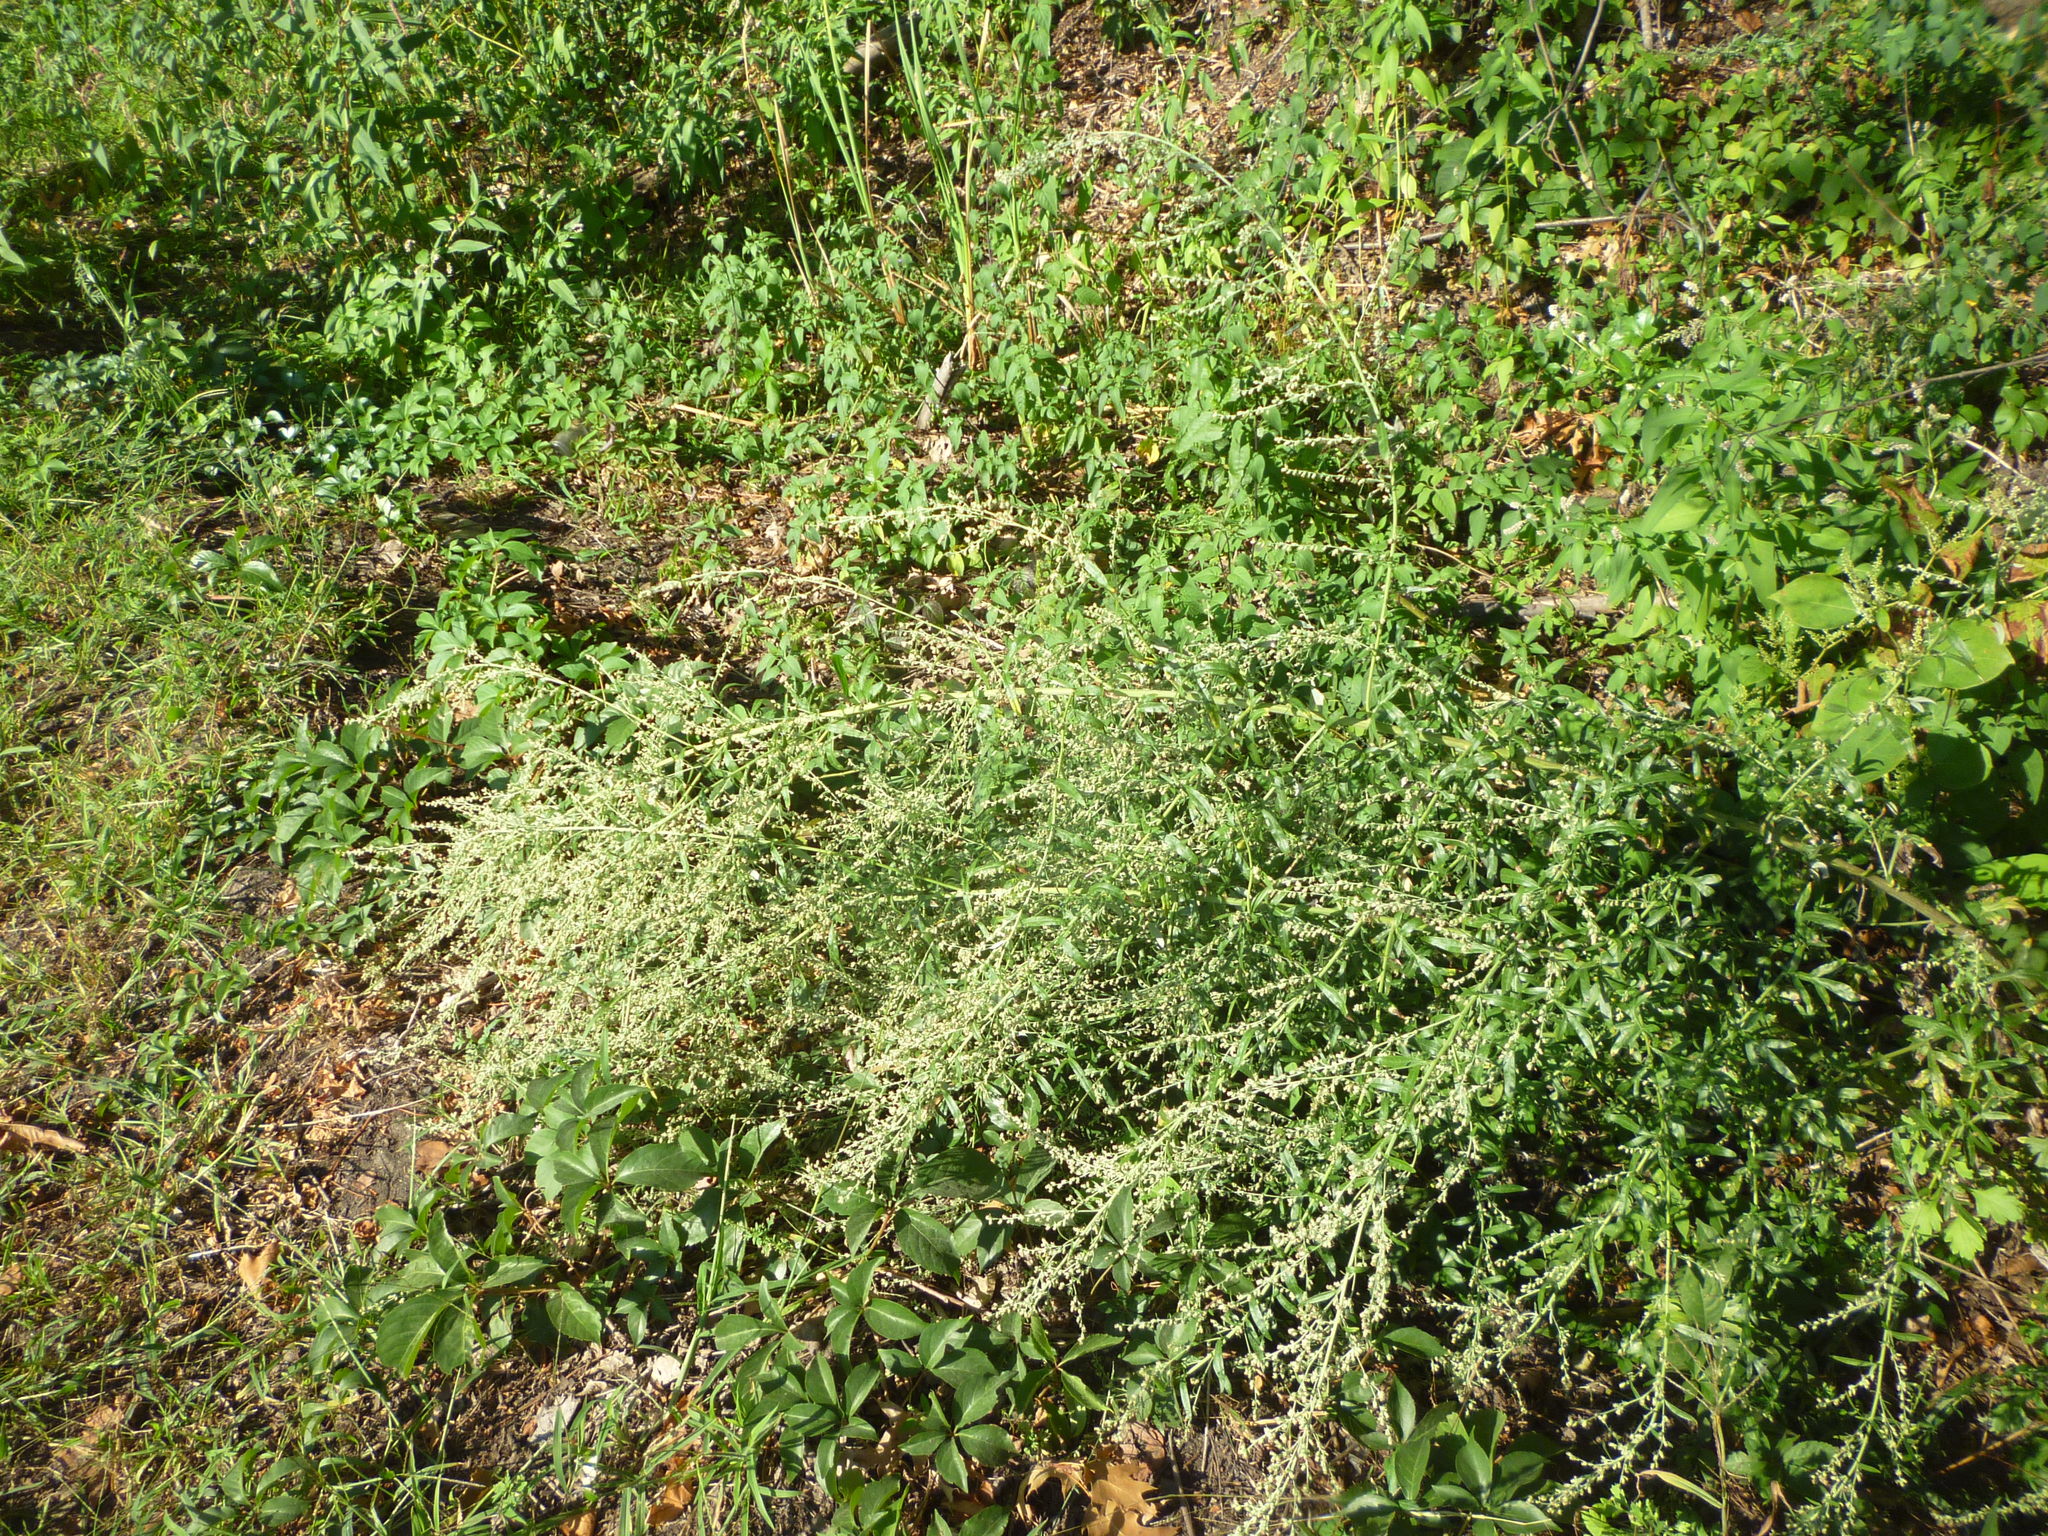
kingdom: Plantae
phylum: Tracheophyta
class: Magnoliopsida
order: Asterales
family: Asteraceae
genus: Artemisia
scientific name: Artemisia vulgaris
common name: Mugwort
